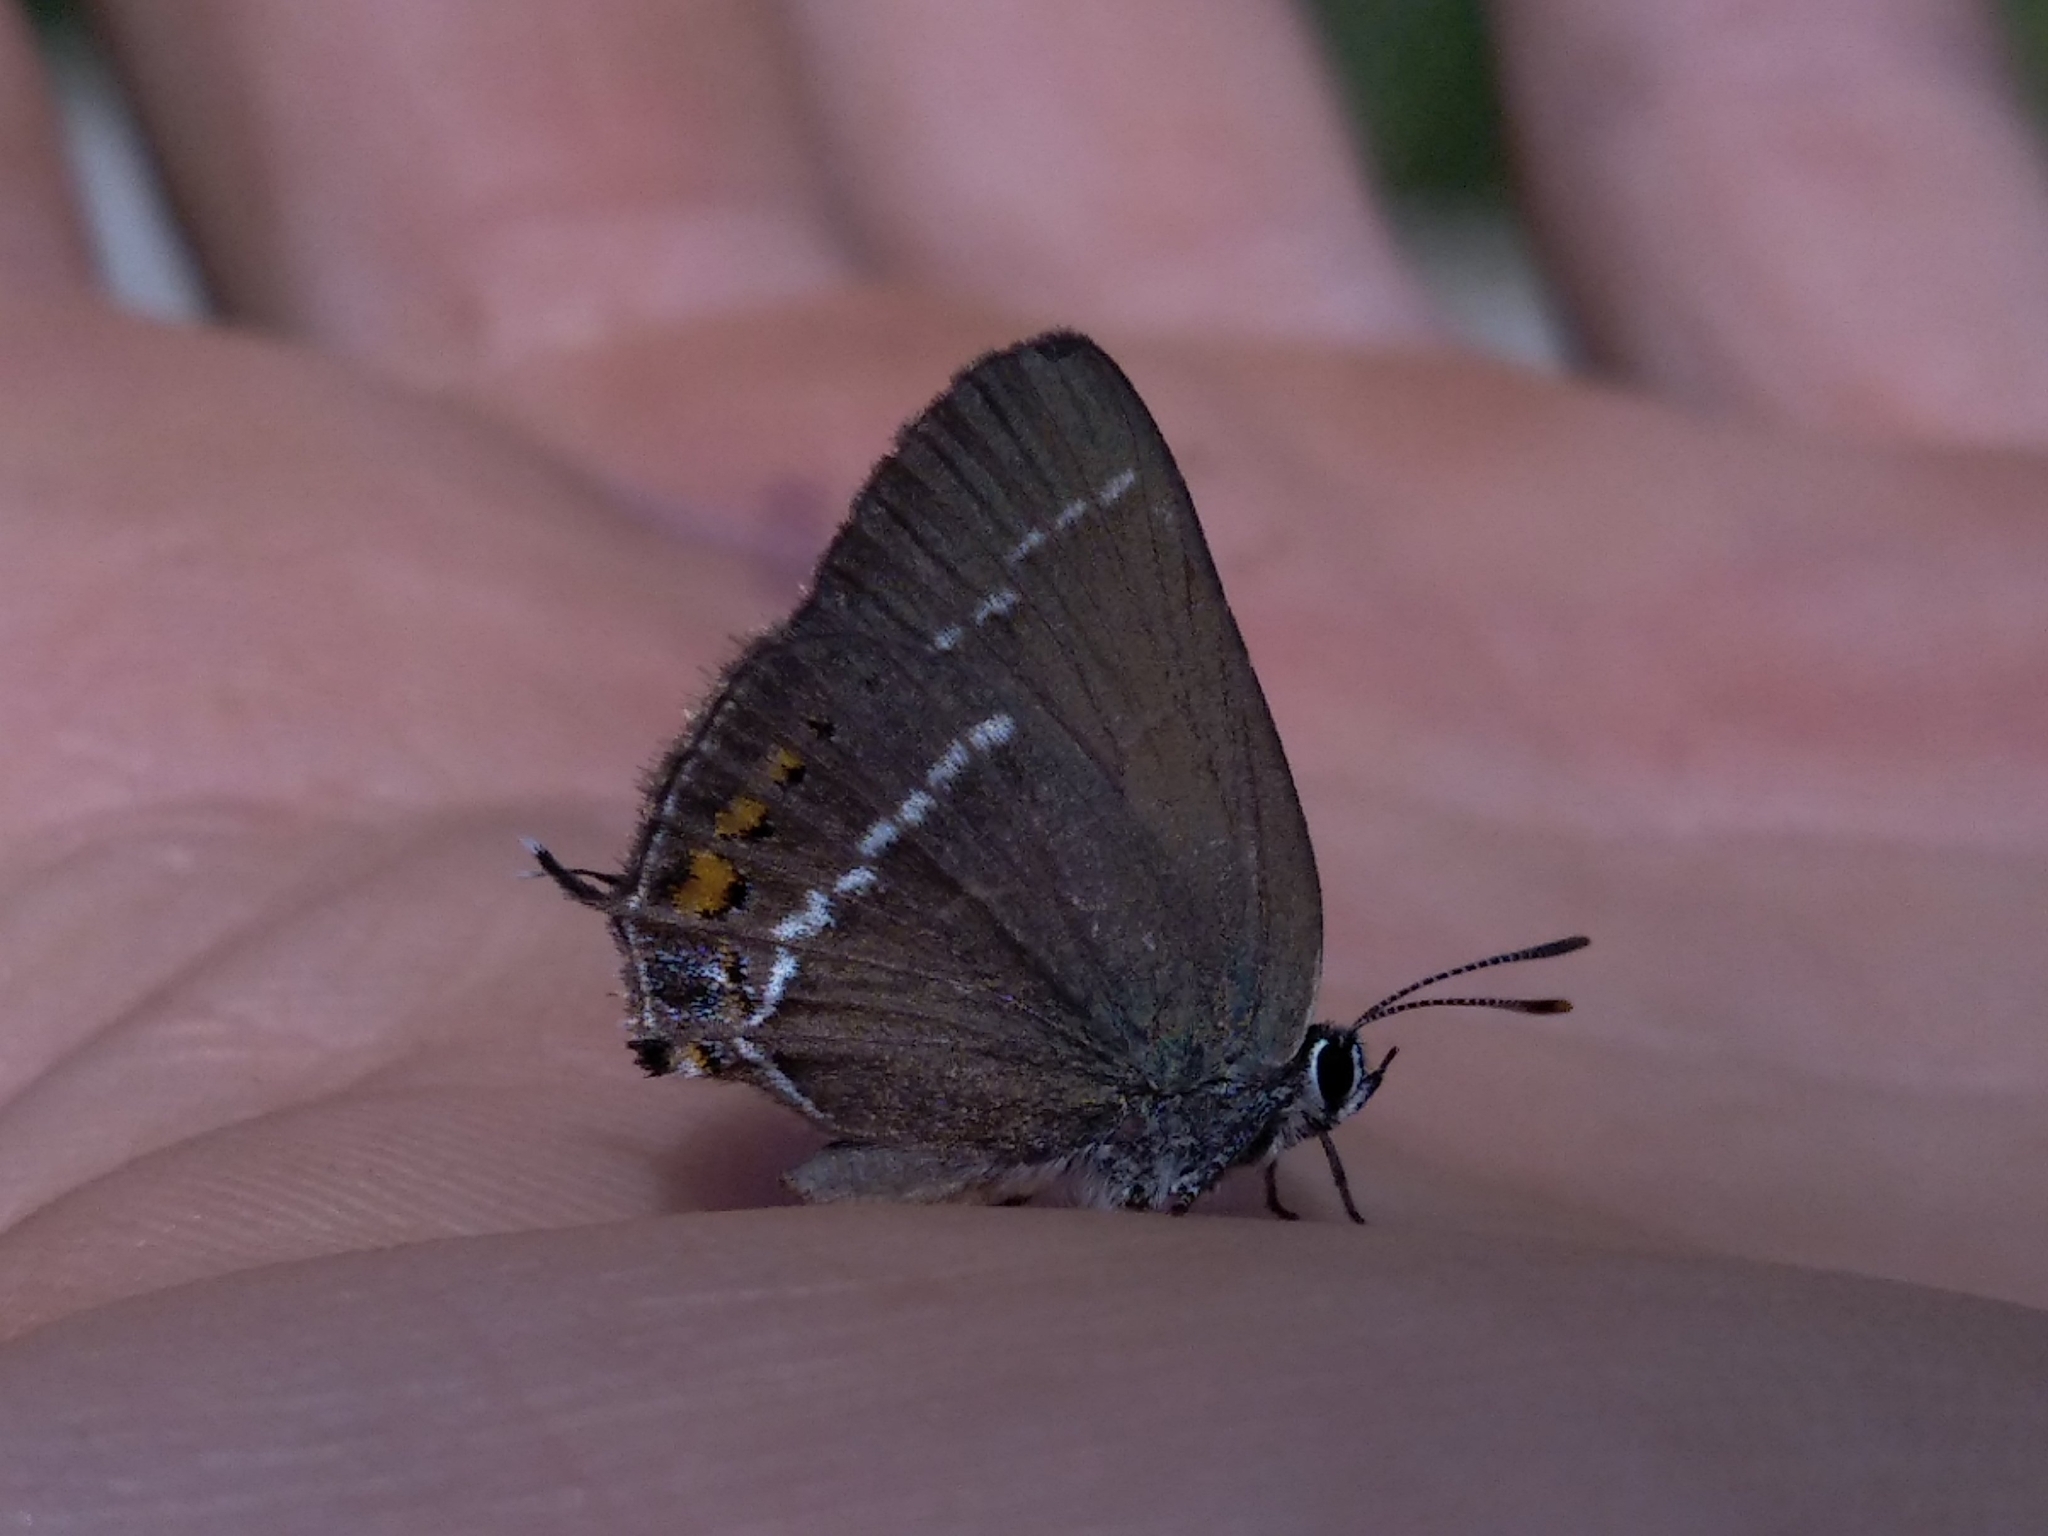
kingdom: Animalia
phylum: Arthropoda
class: Insecta
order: Lepidoptera
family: Lycaenidae
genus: Tuttiola
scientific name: Tuttiola spini
